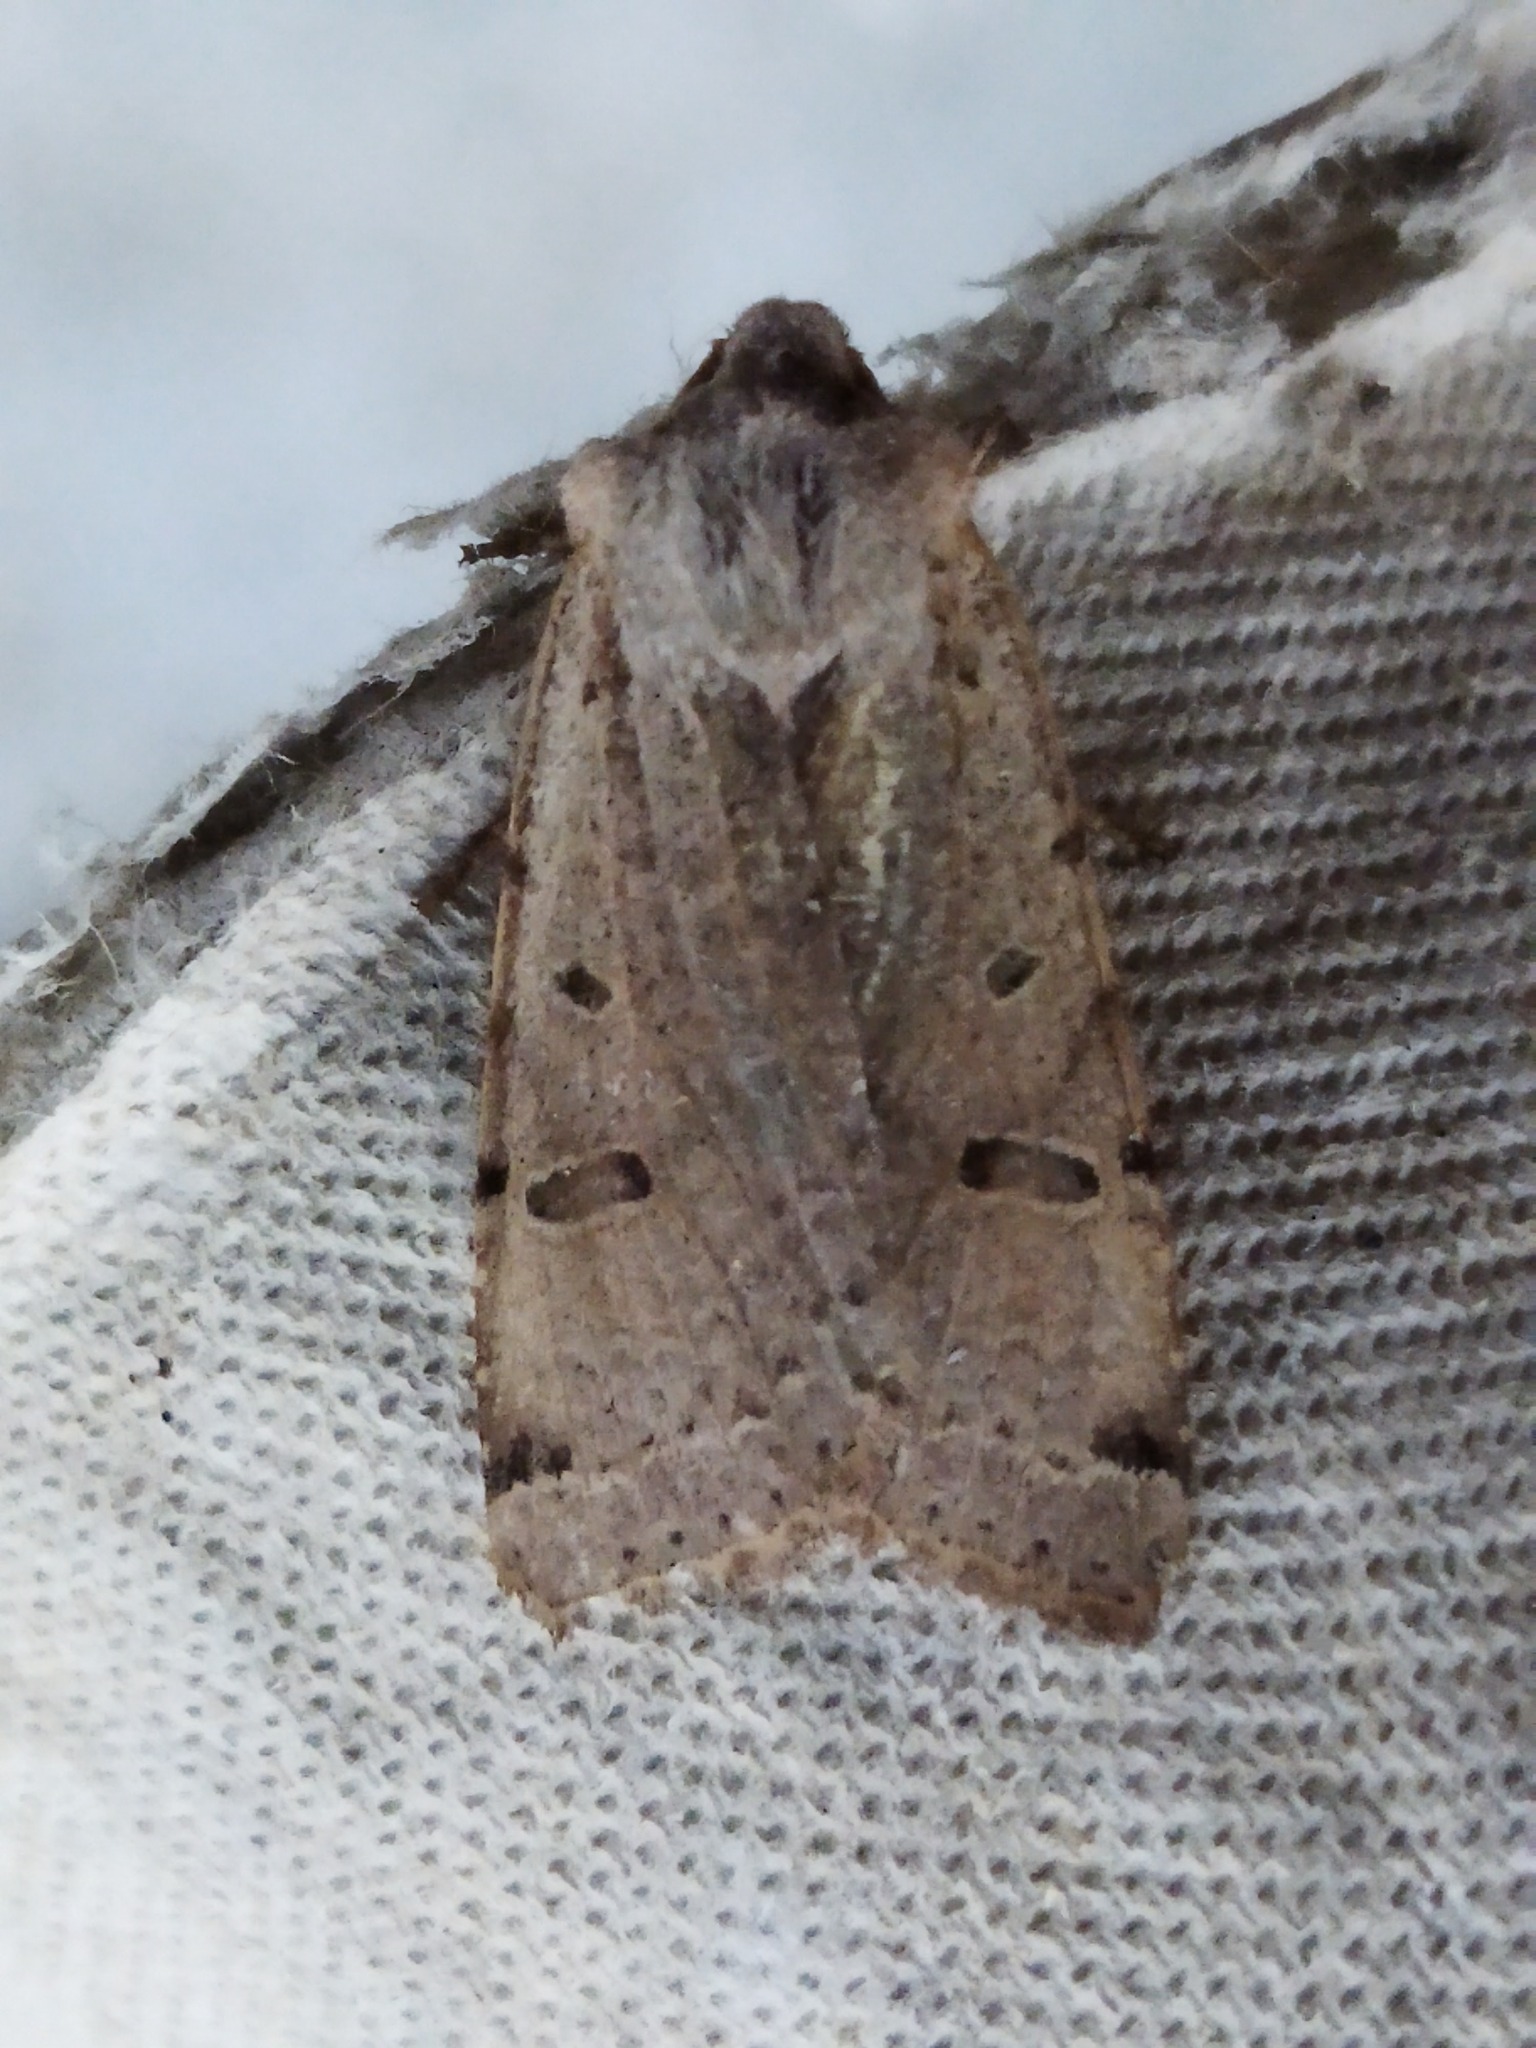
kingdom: Animalia
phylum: Arthropoda
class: Insecta
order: Lepidoptera
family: Noctuidae
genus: Agrochola
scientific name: Agrochola lychnidis
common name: Beaded chestnut
